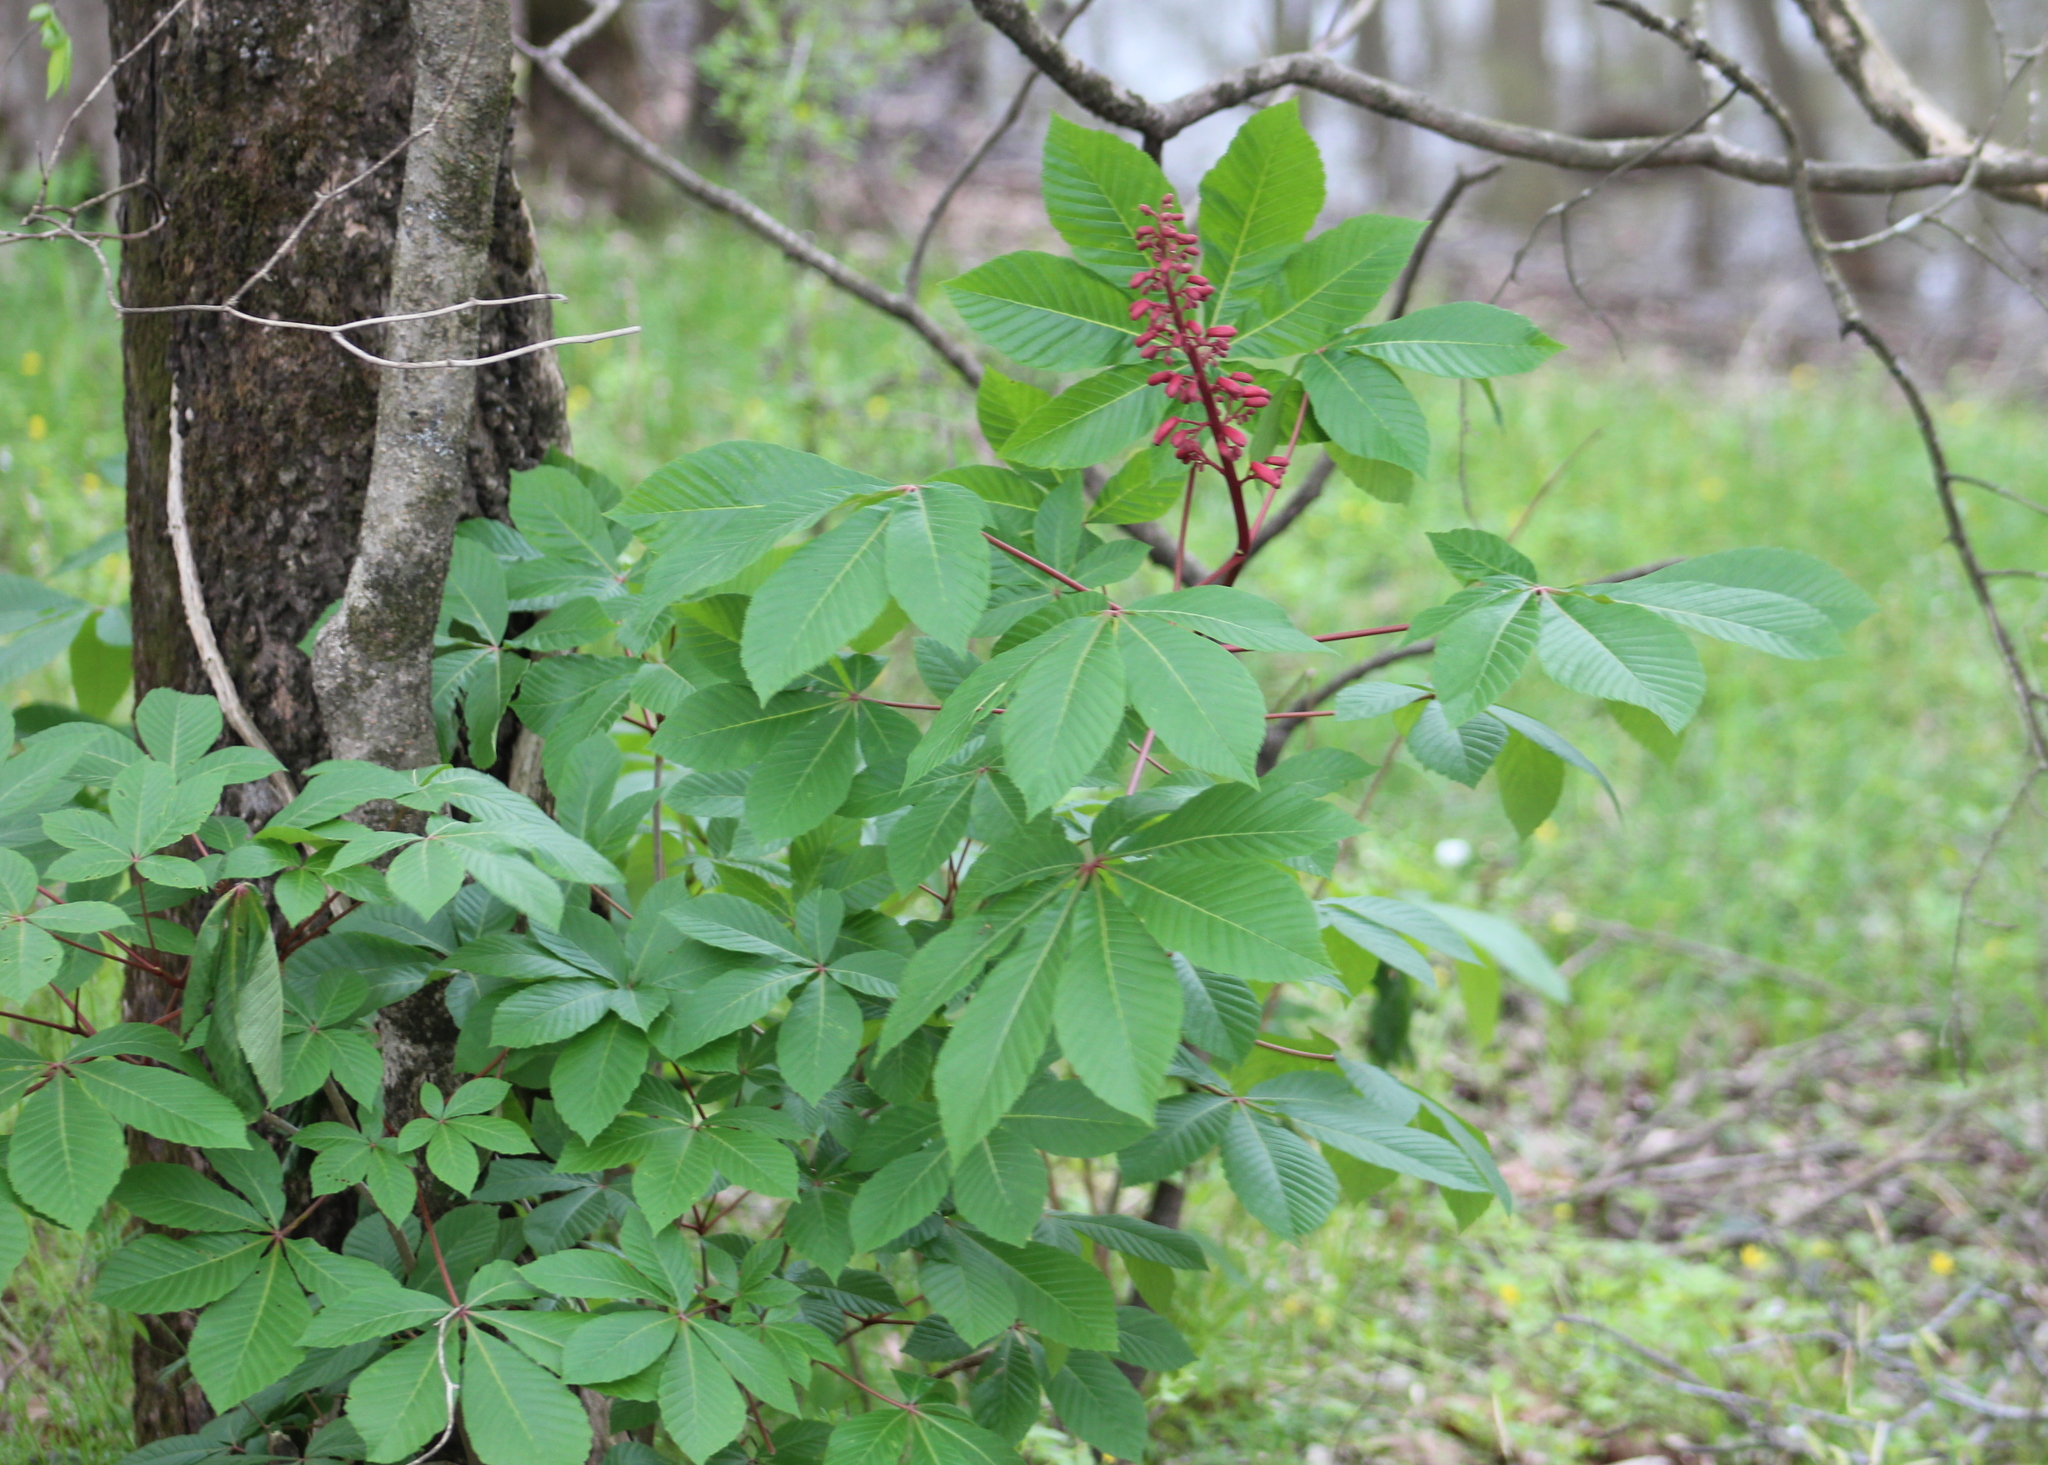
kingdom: Plantae
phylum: Tracheophyta
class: Magnoliopsida
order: Sapindales
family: Sapindaceae
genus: Aesculus
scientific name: Aesculus pavia
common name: Red buckeye
